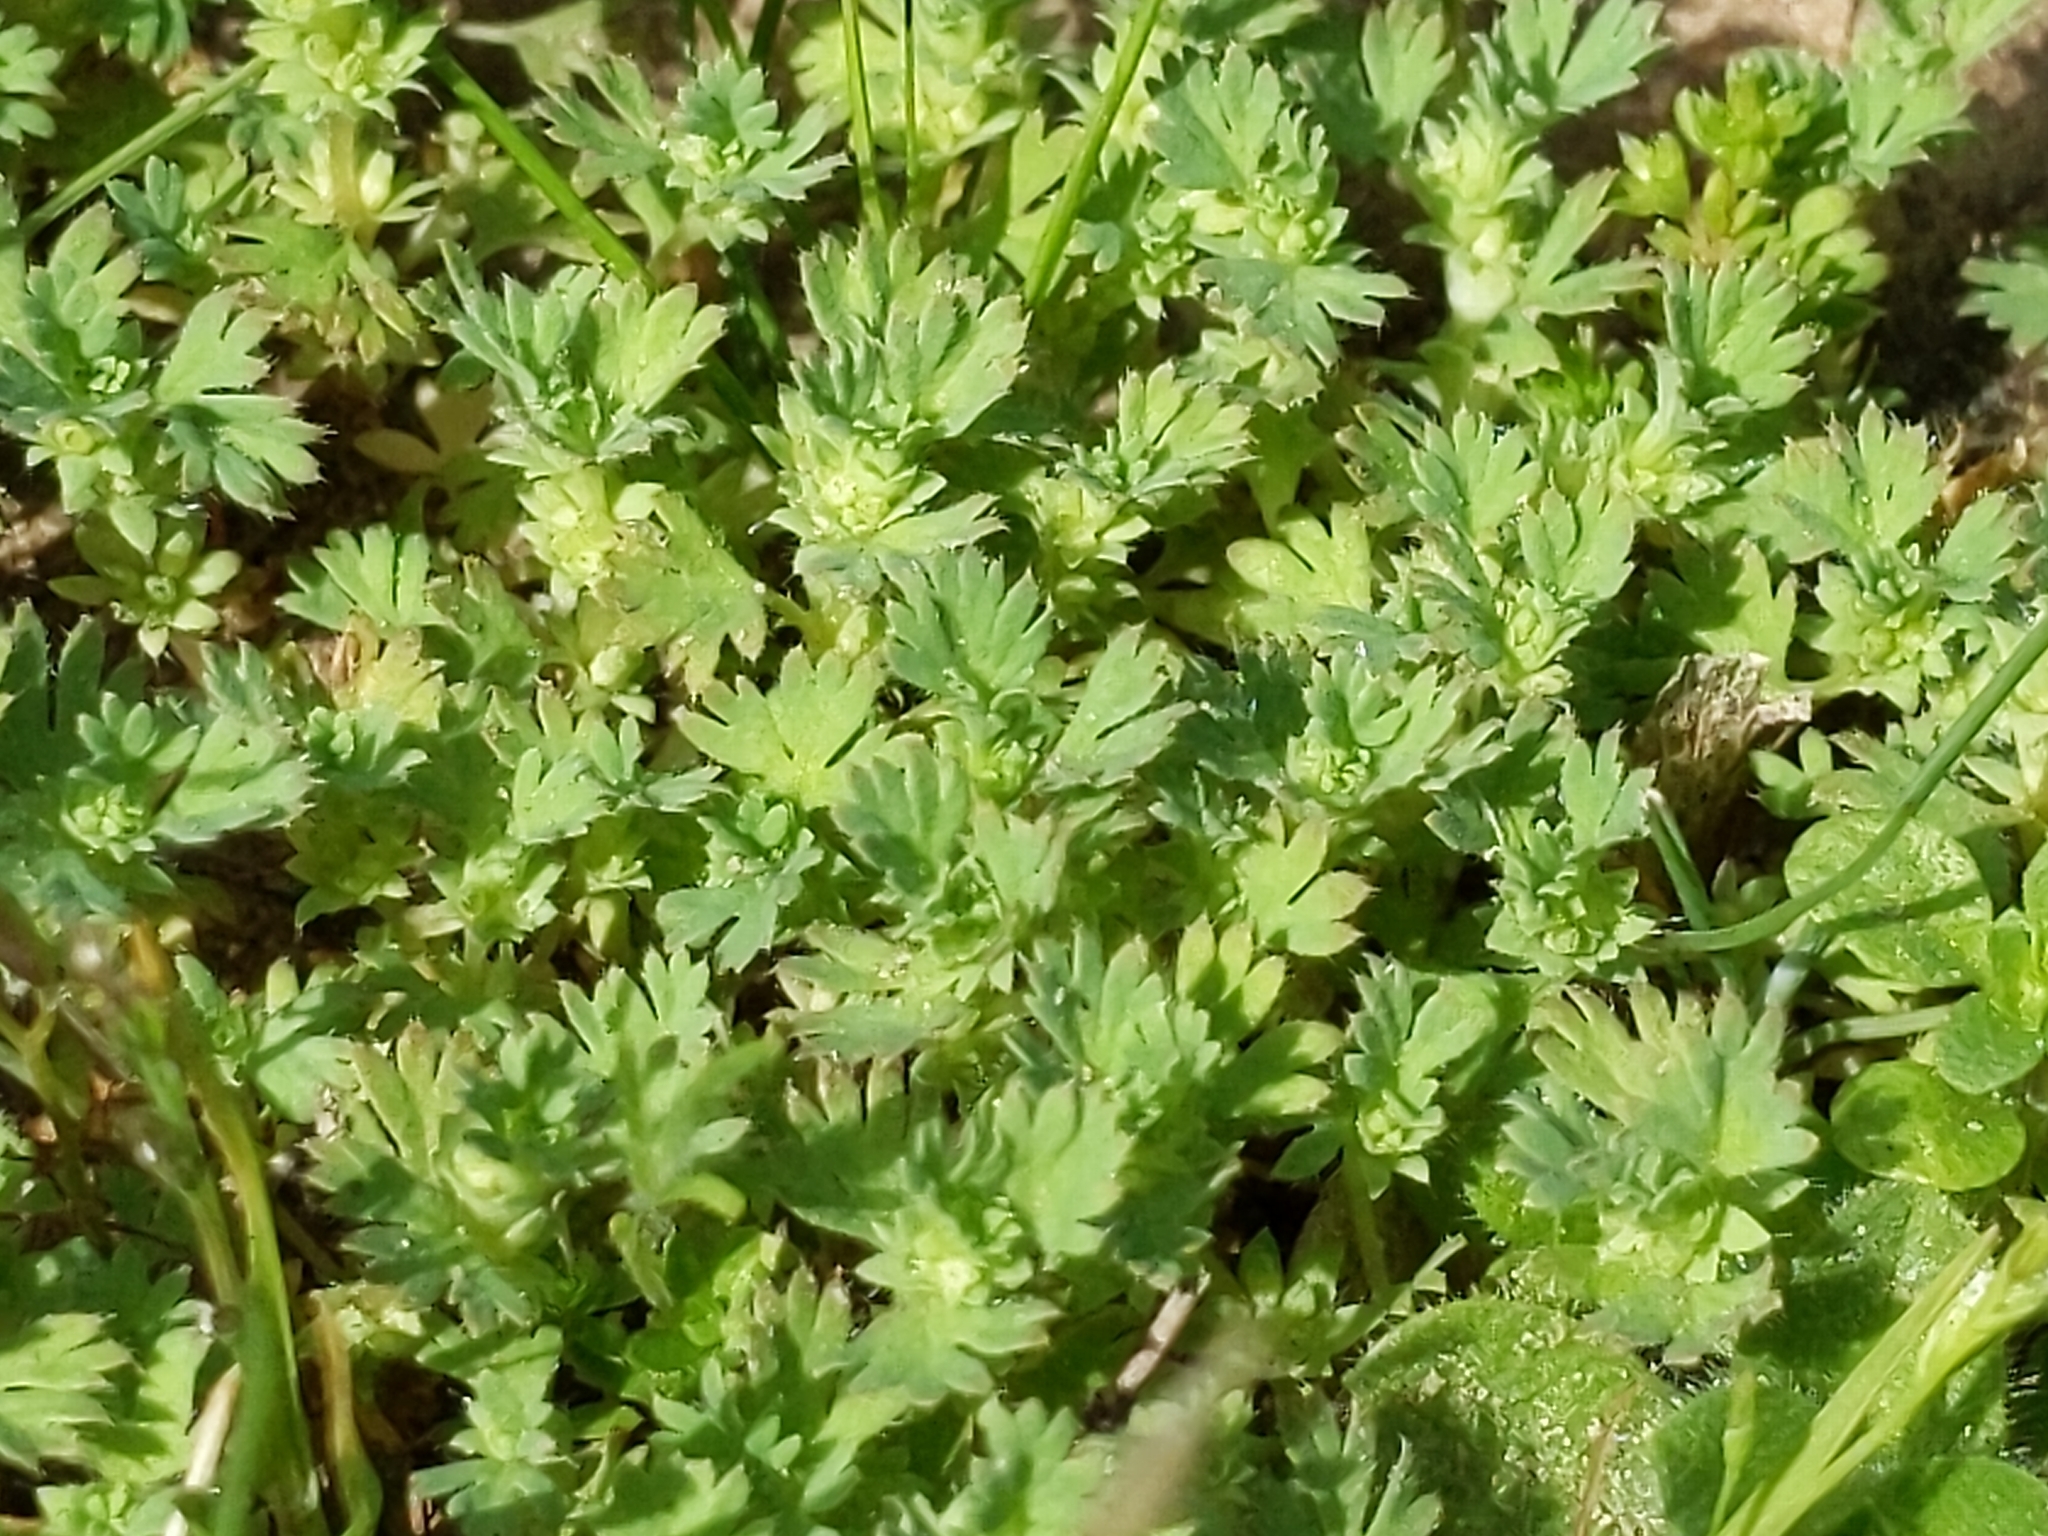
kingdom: Plantae
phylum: Tracheophyta
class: Magnoliopsida
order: Rosales
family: Rosaceae
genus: Aphanes
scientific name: Aphanes arvensis
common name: Parsley-piert
